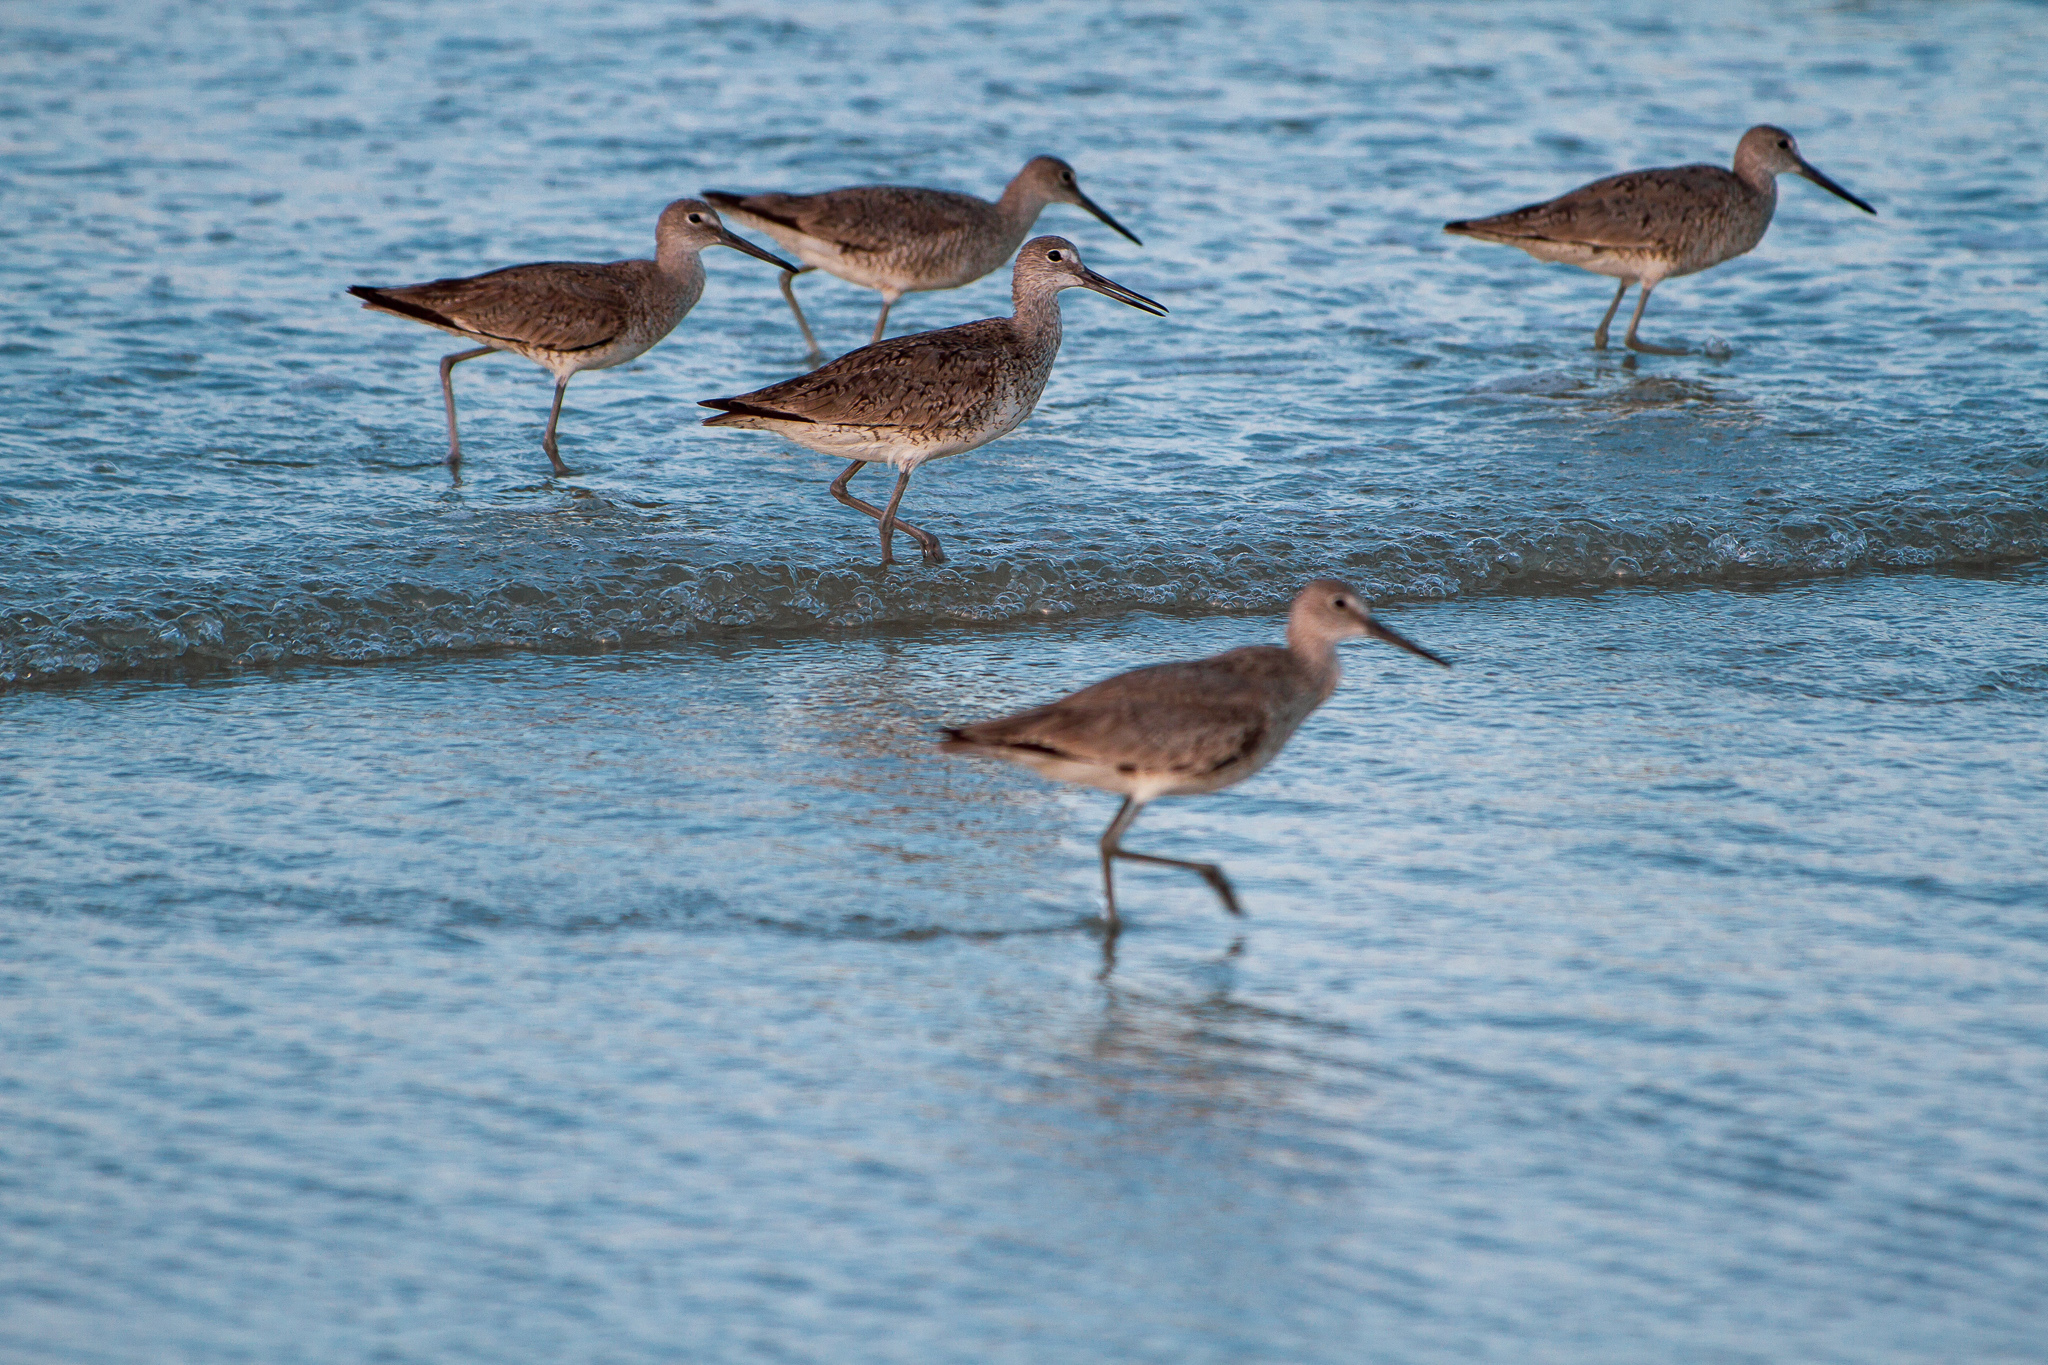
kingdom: Animalia
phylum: Chordata
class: Aves
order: Charadriiformes
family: Scolopacidae
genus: Tringa
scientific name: Tringa semipalmata
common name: Willet
